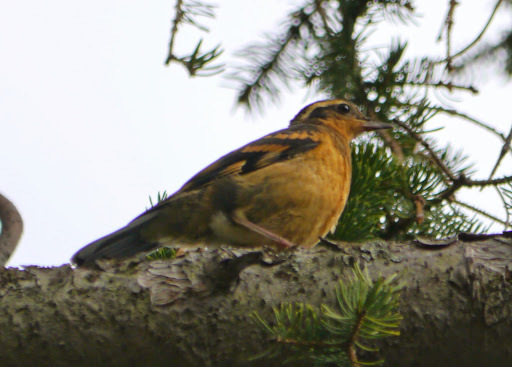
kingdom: Animalia
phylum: Chordata
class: Aves
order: Passeriformes
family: Turdidae
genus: Ixoreus
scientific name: Ixoreus naevius
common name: Varied thrush
